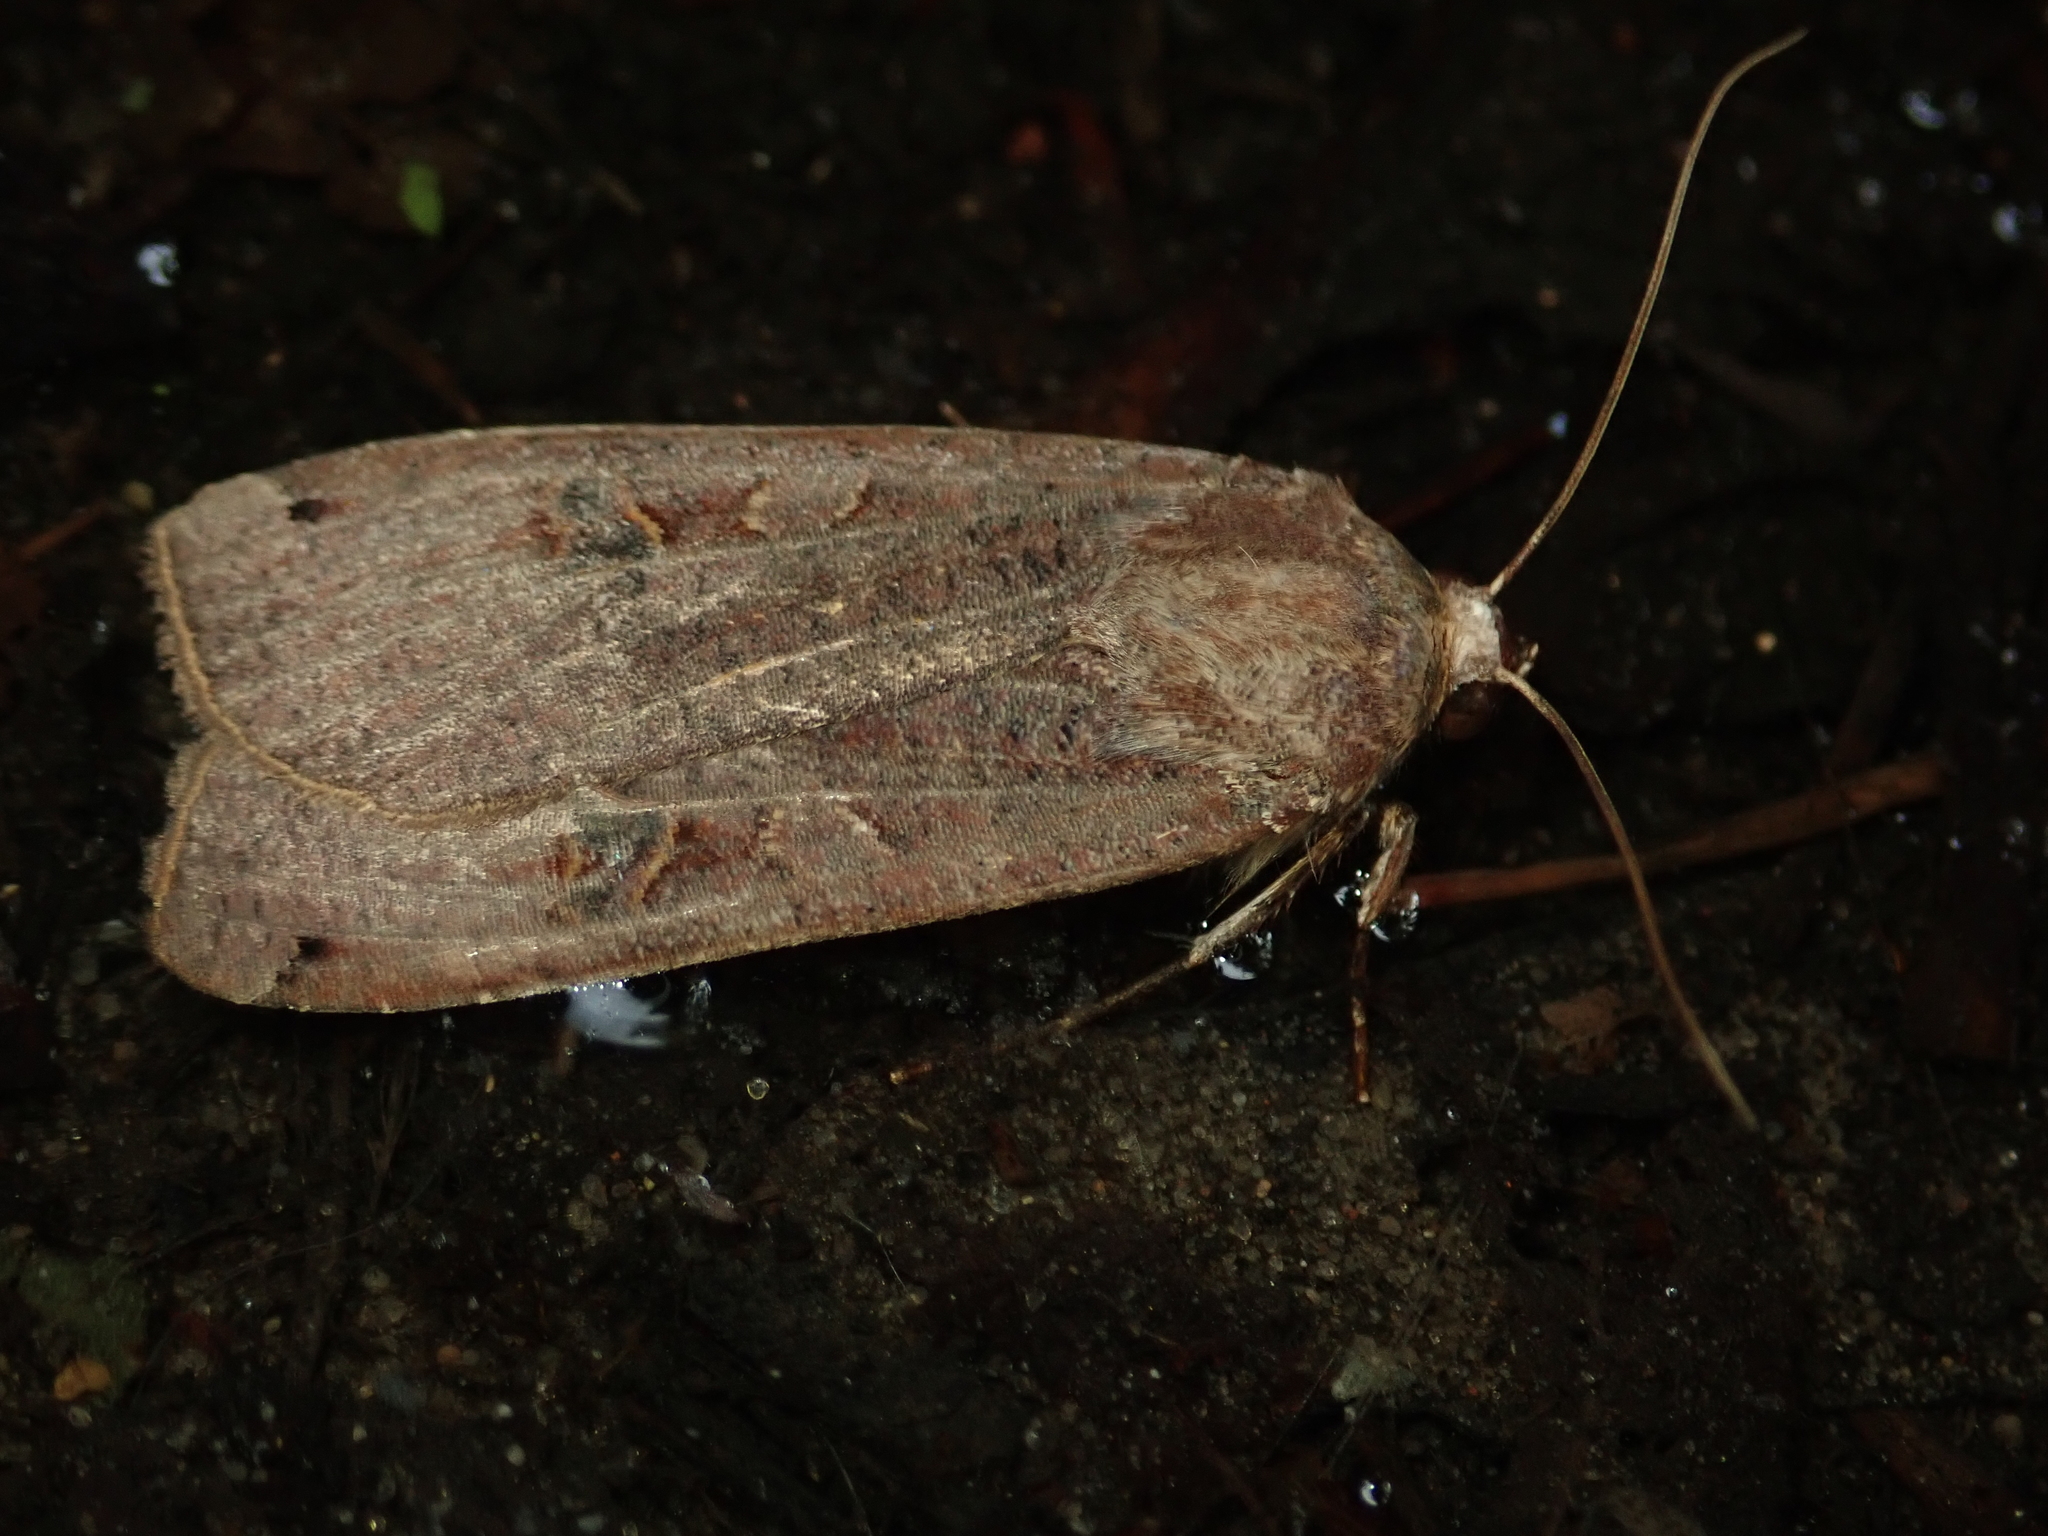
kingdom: Animalia
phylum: Arthropoda
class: Insecta
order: Lepidoptera
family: Noctuidae
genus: Noctua
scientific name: Noctua pronuba
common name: Large yellow underwing
